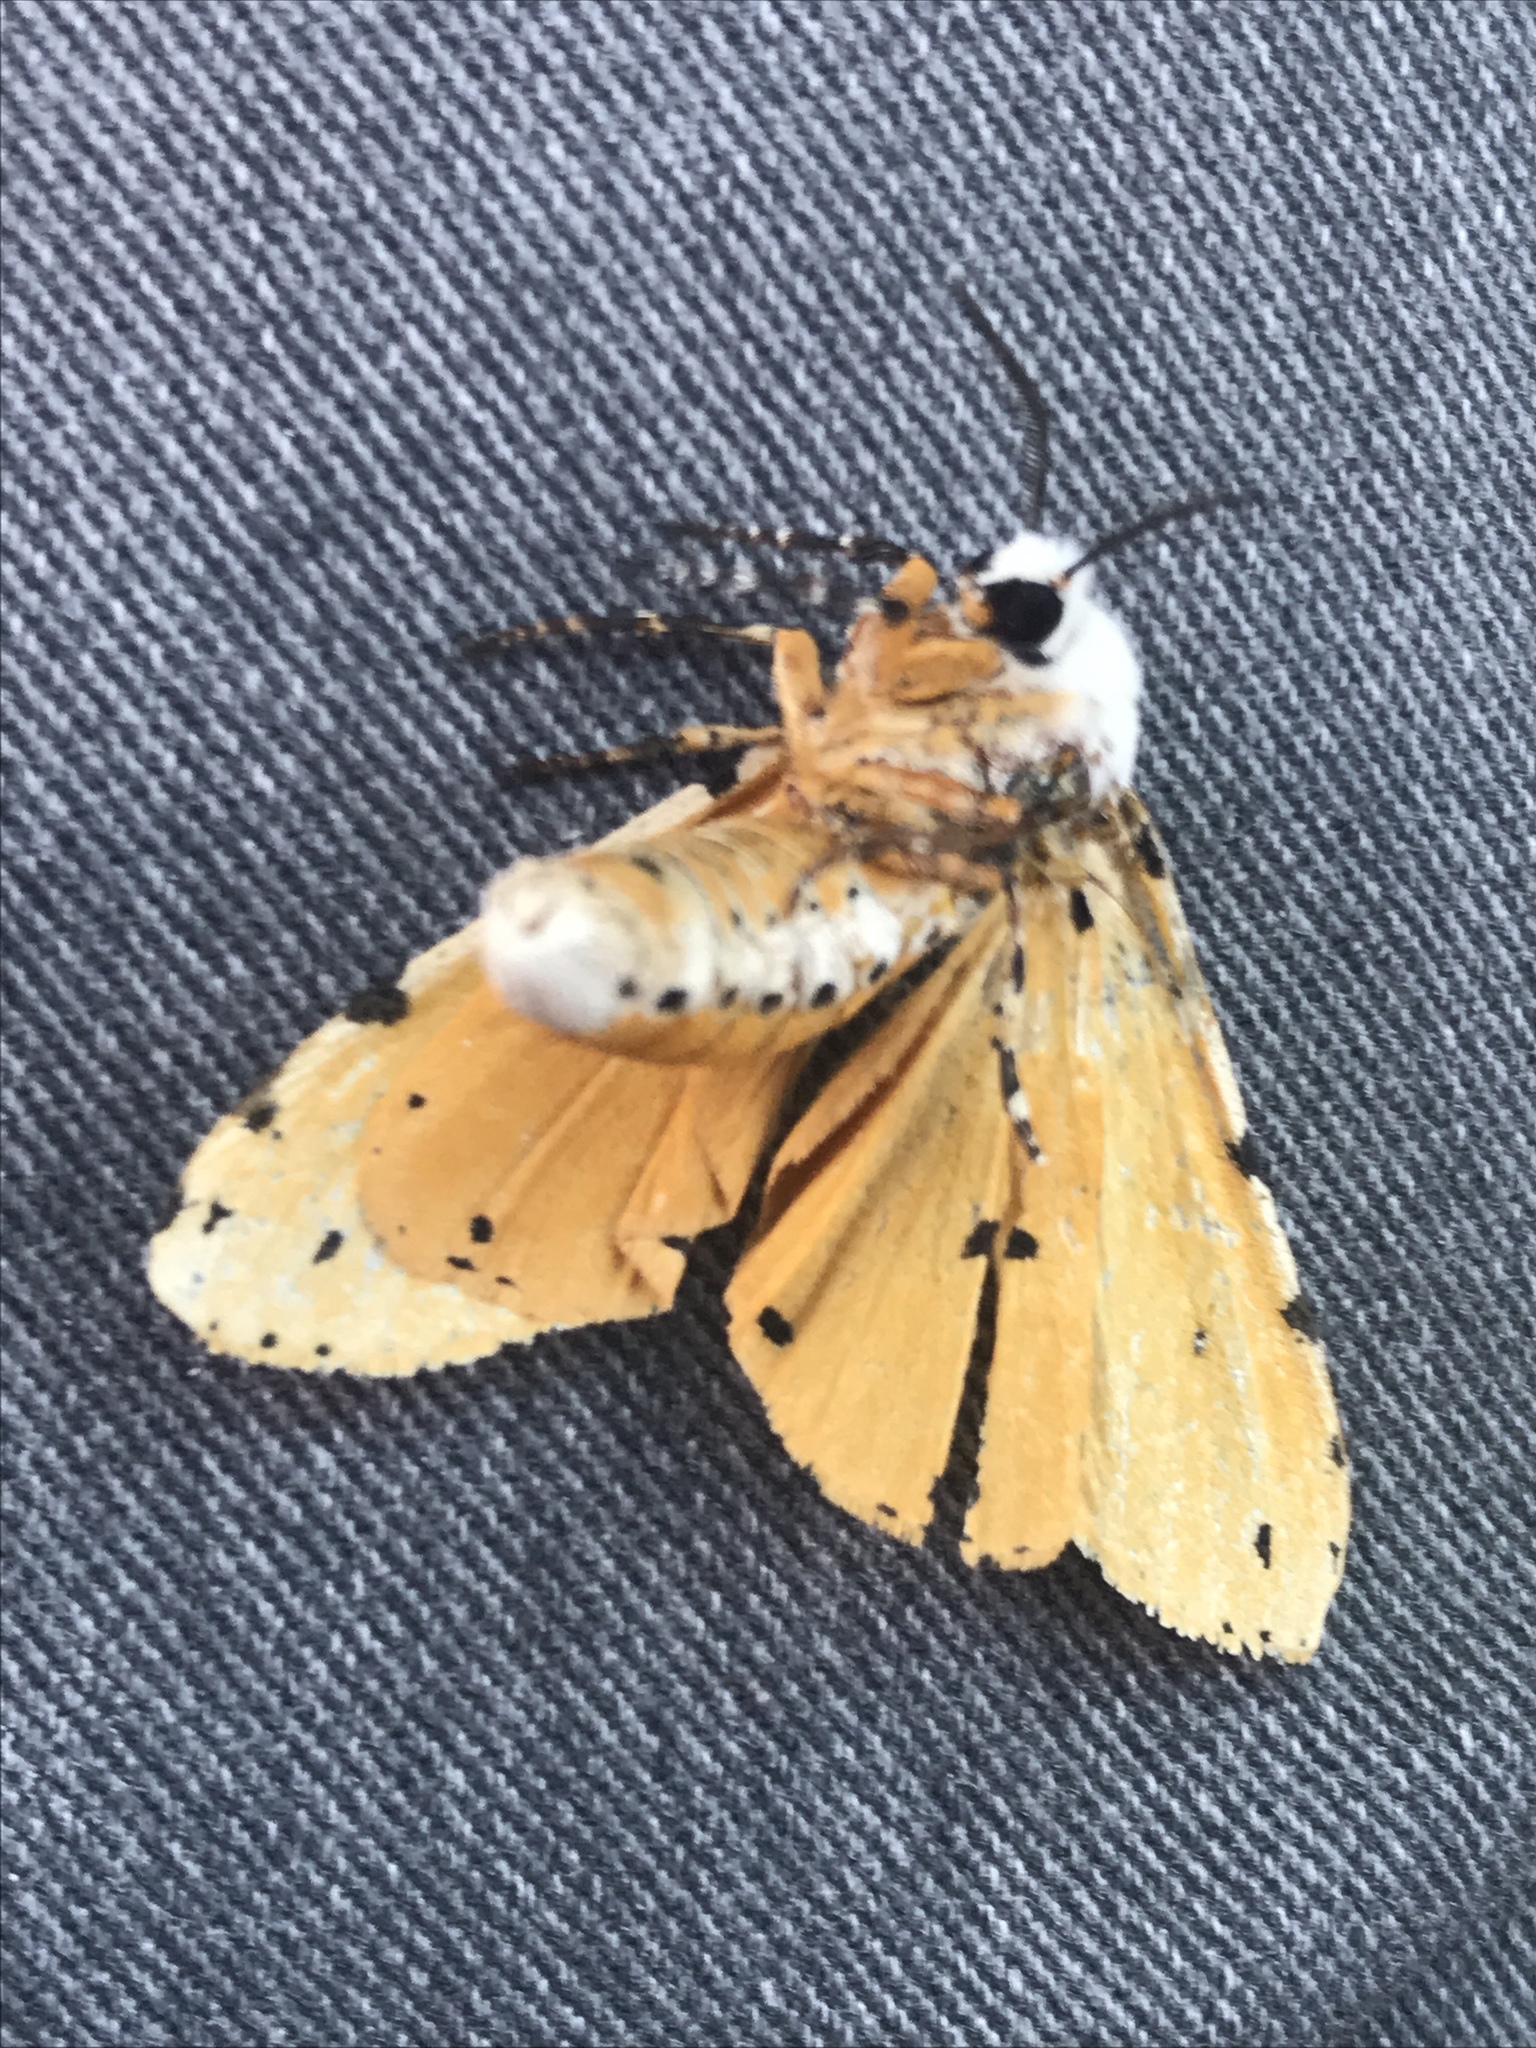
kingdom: Animalia
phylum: Arthropoda
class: Insecta
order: Lepidoptera
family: Erebidae
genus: Estigmene
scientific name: Estigmene acrea
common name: Salt marsh moth
